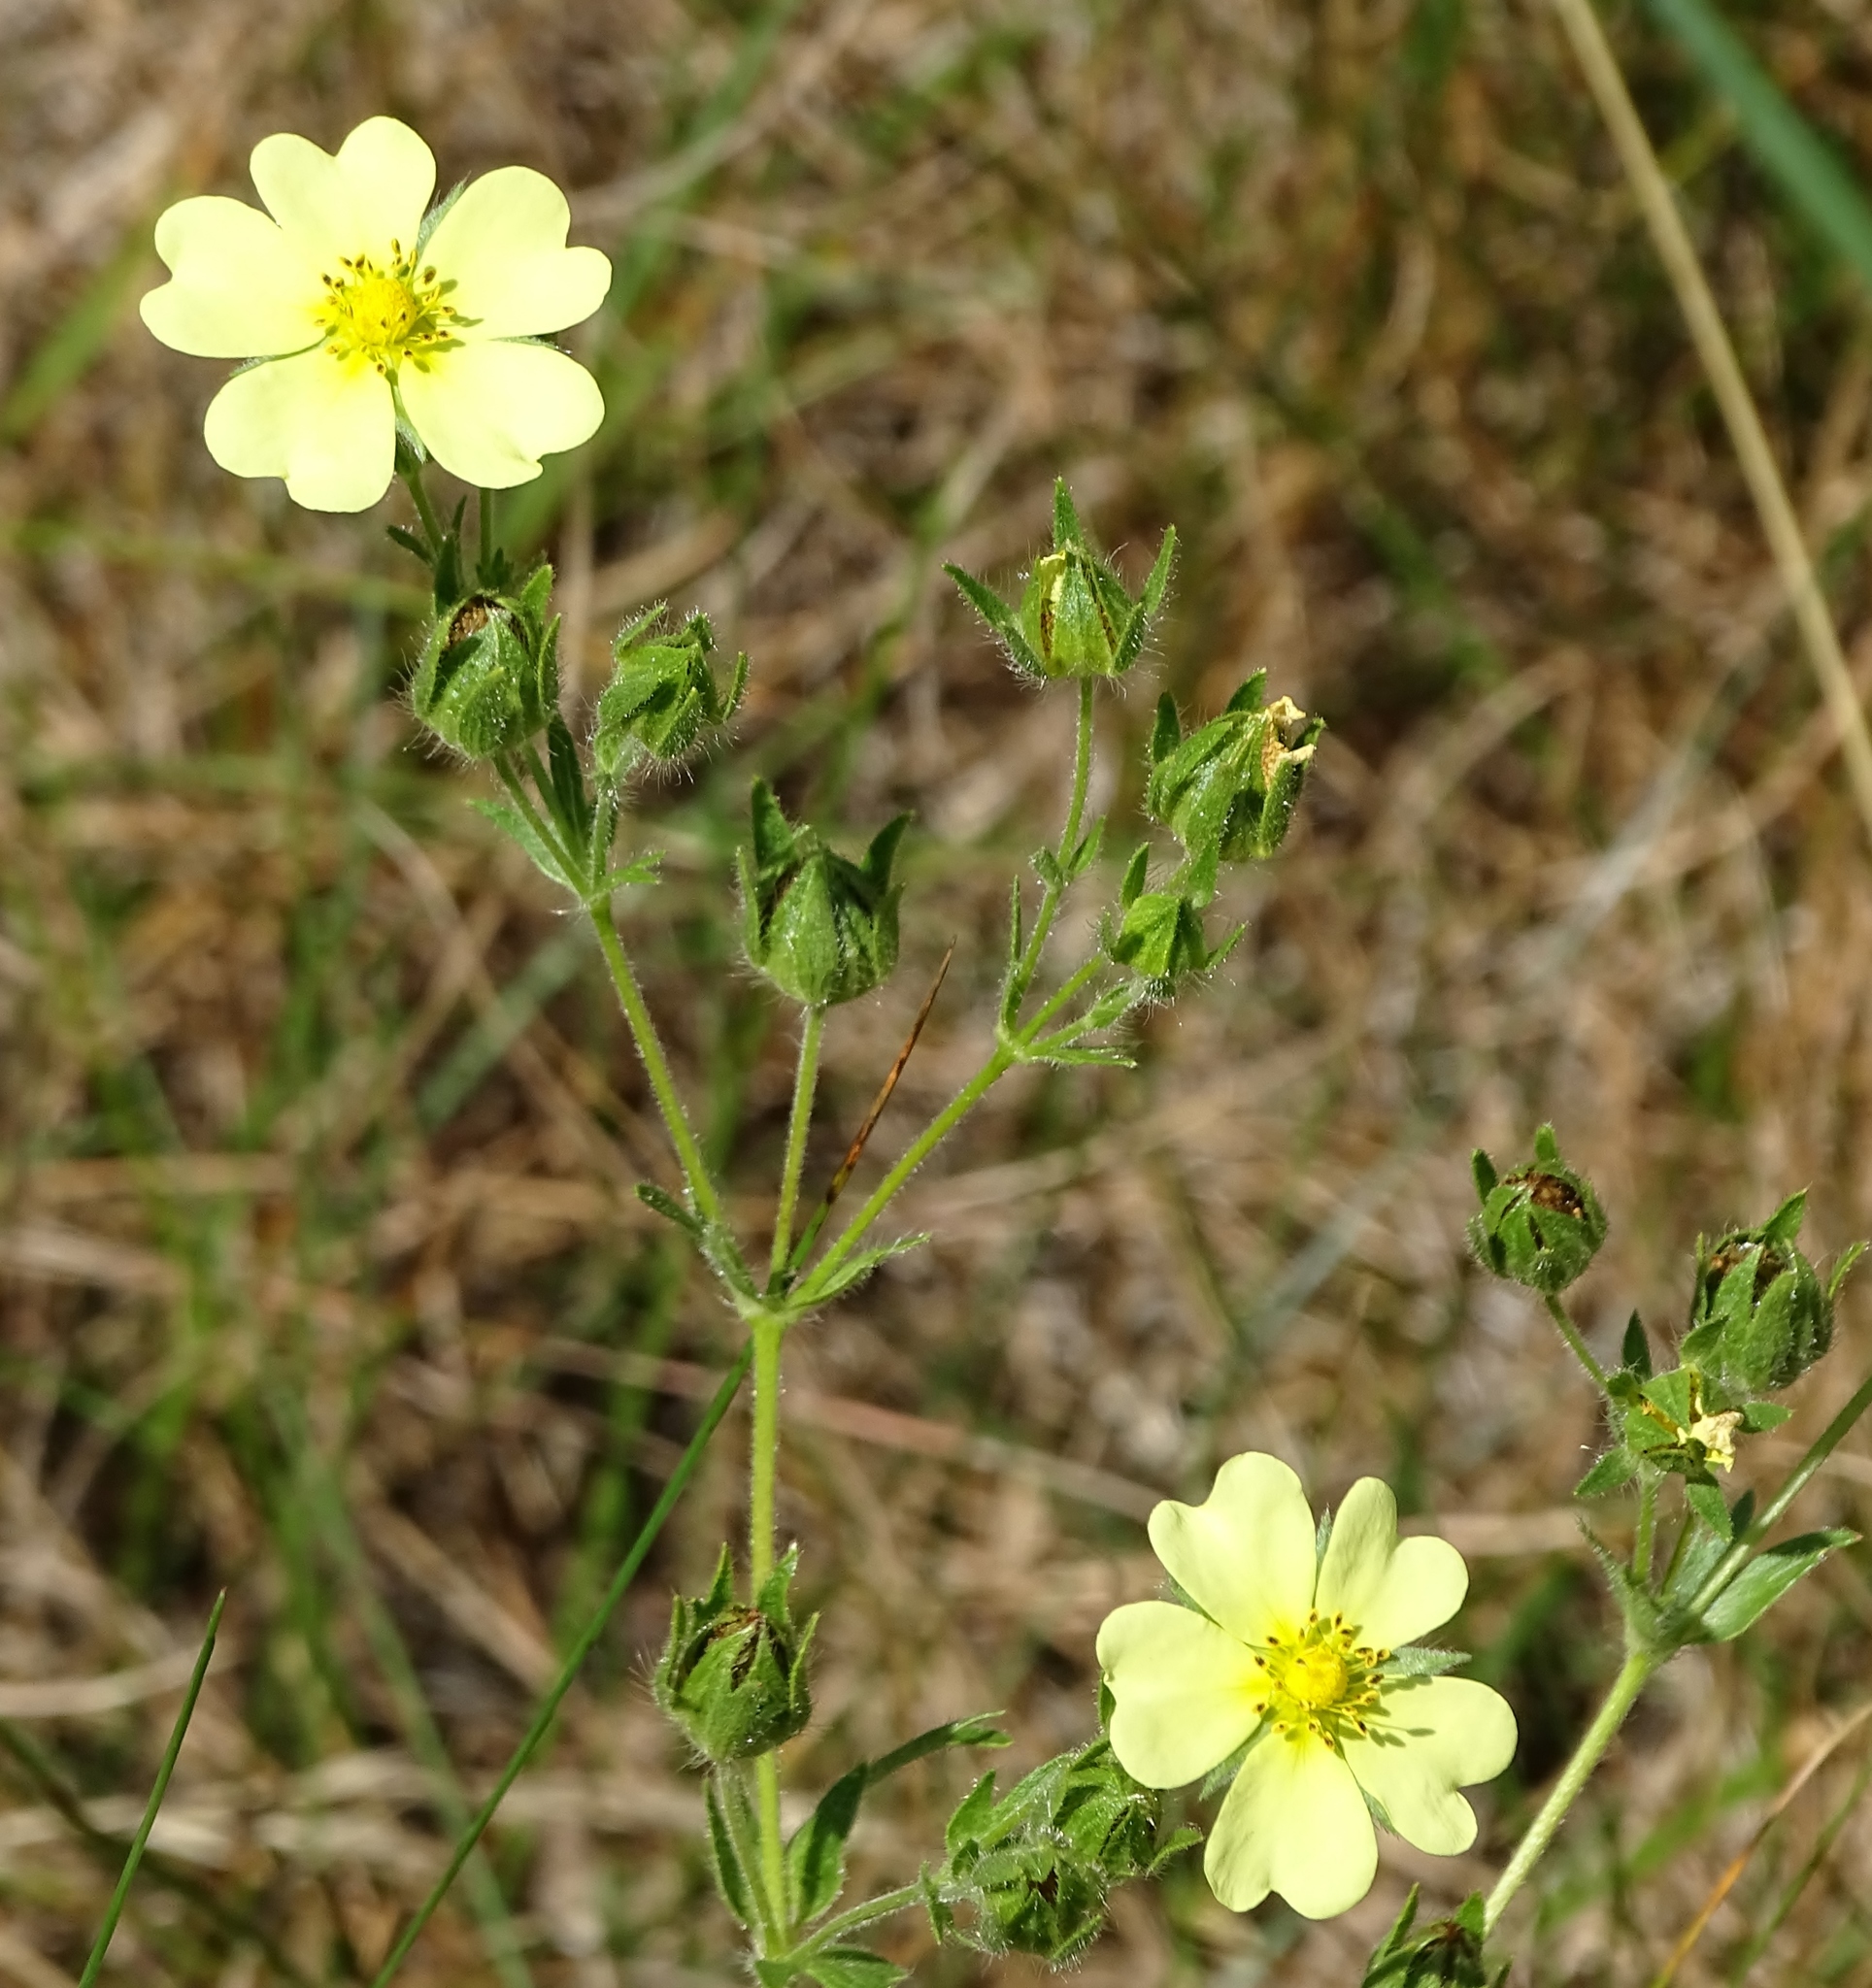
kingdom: Plantae
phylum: Tracheophyta
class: Magnoliopsida
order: Rosales
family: Rosaceae
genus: Potentilla
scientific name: Potentilla recta
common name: Sulphur cinquefoil
